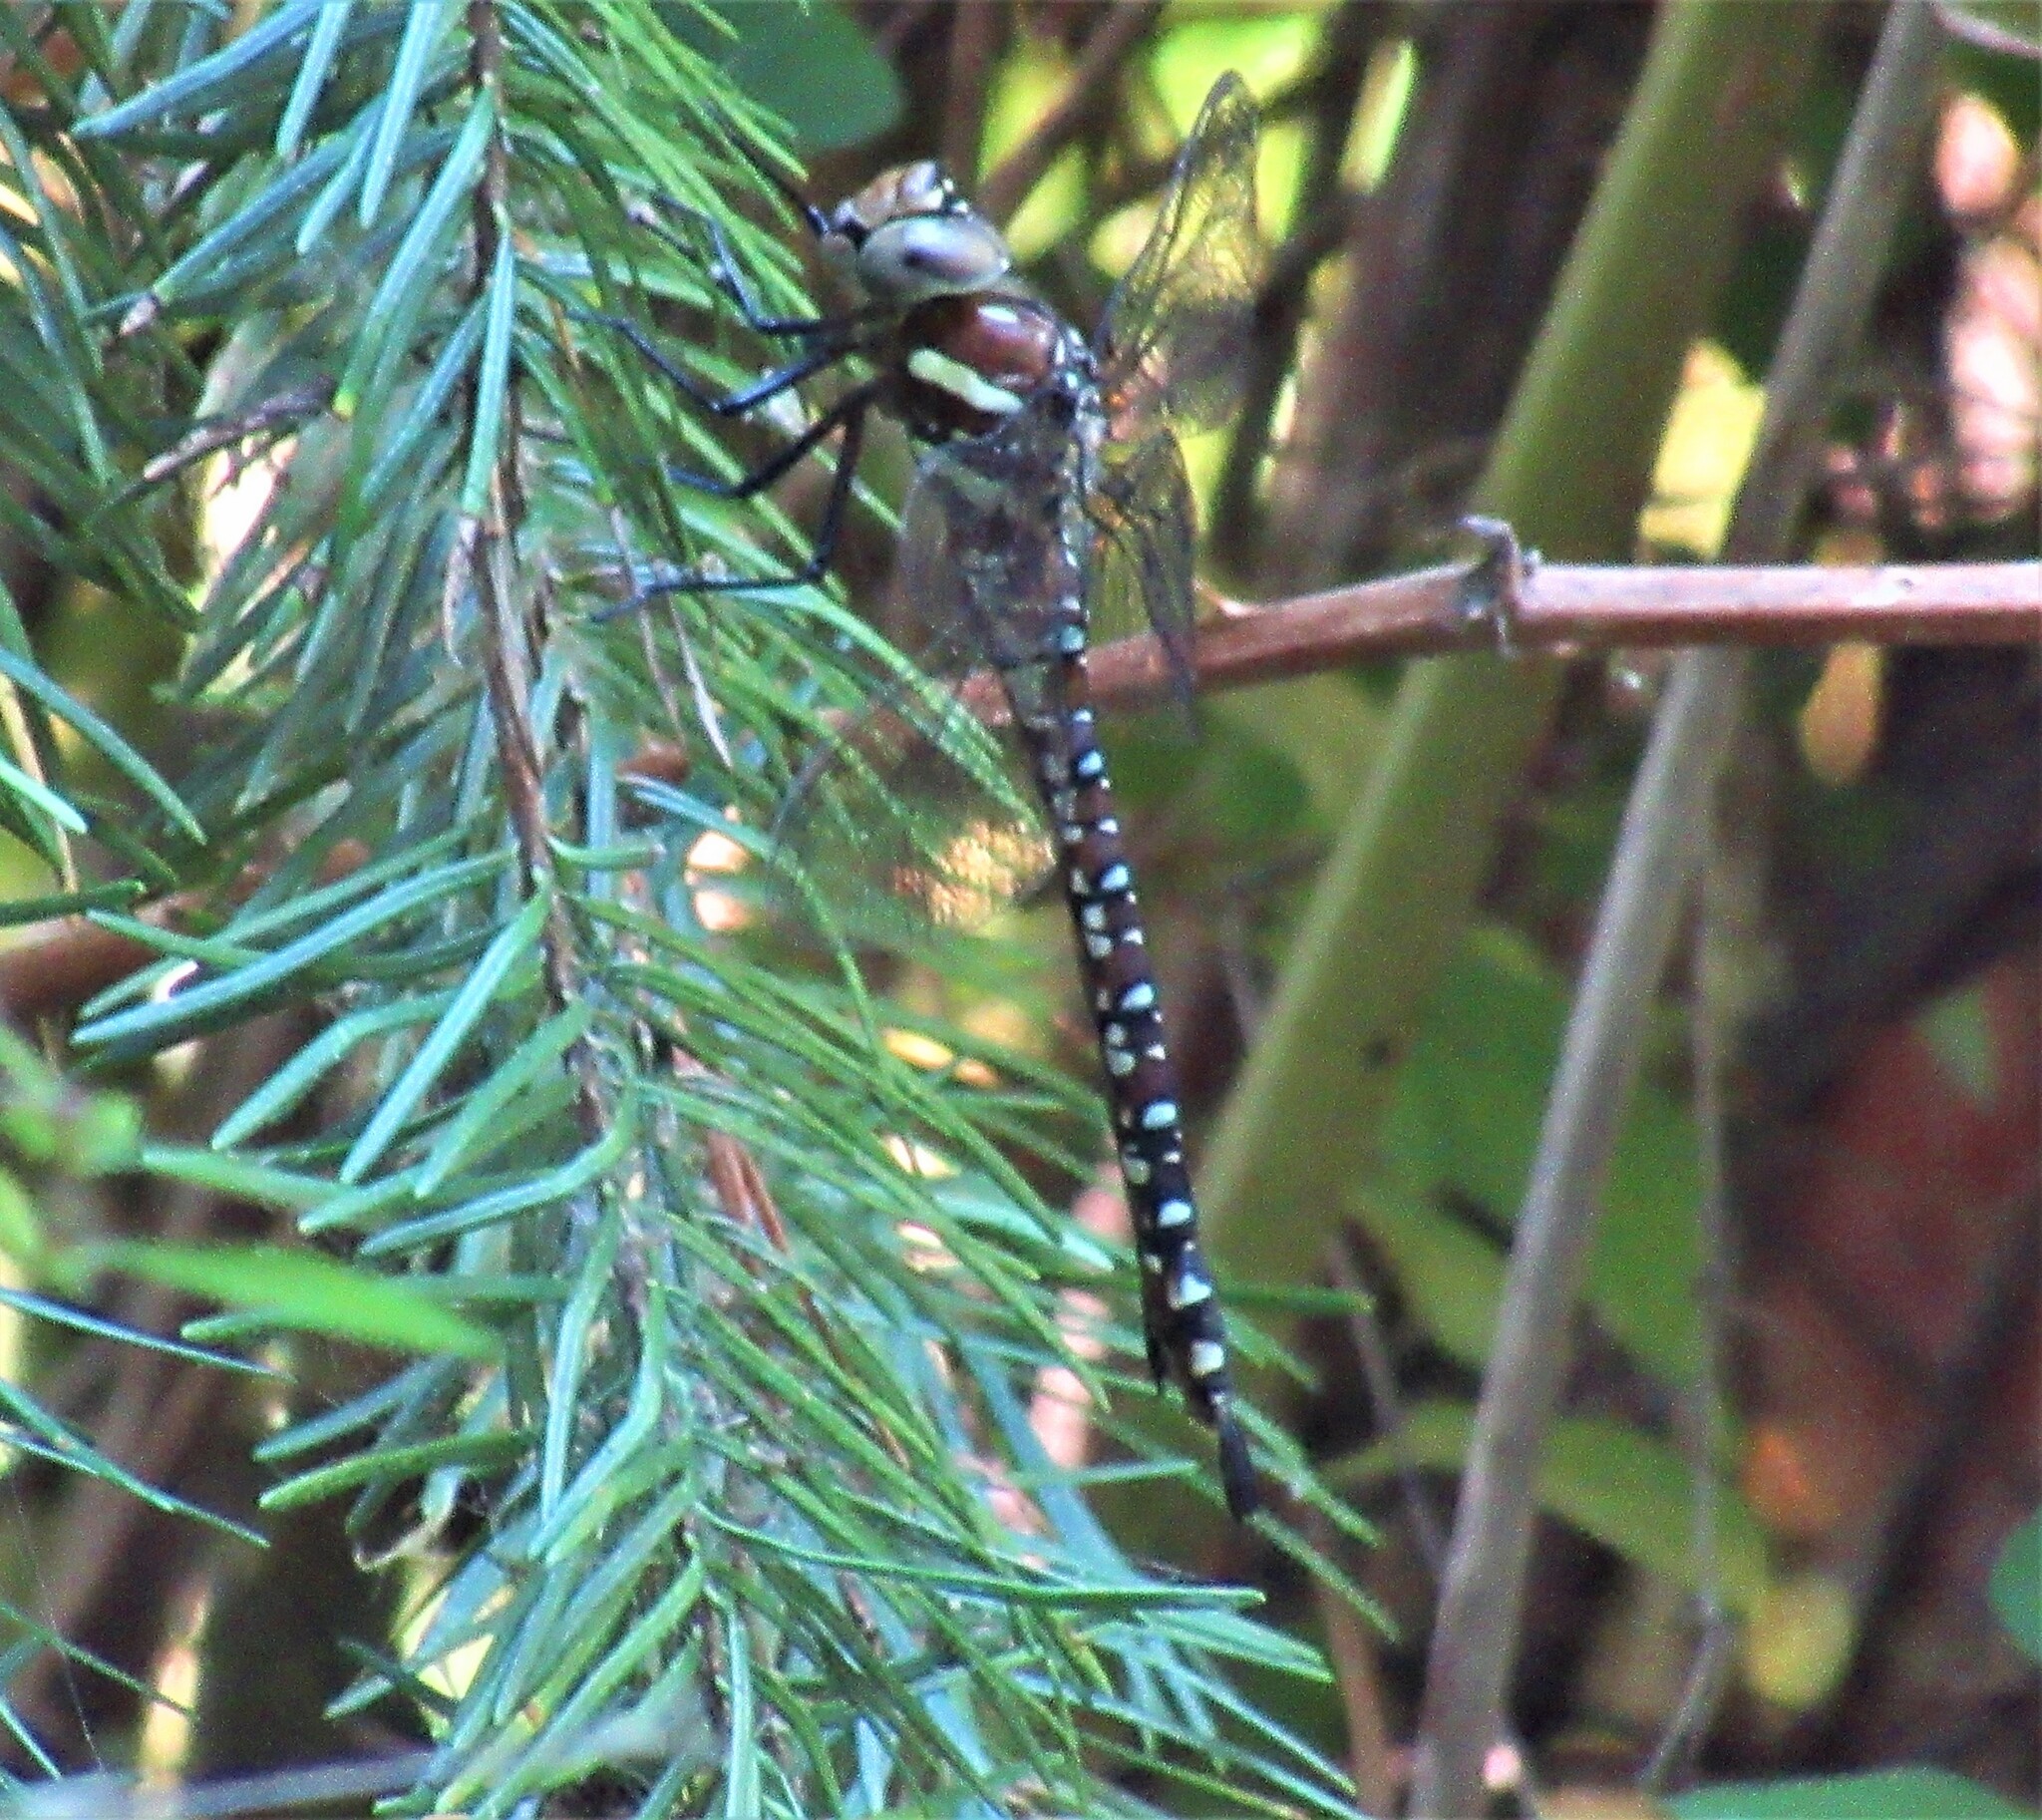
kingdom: Animalia
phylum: Arthropoda
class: Insecta
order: Odonata
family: Aeshnidae
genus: Aeshna
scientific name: Aeshna palmata
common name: Paddle-tailed darner
